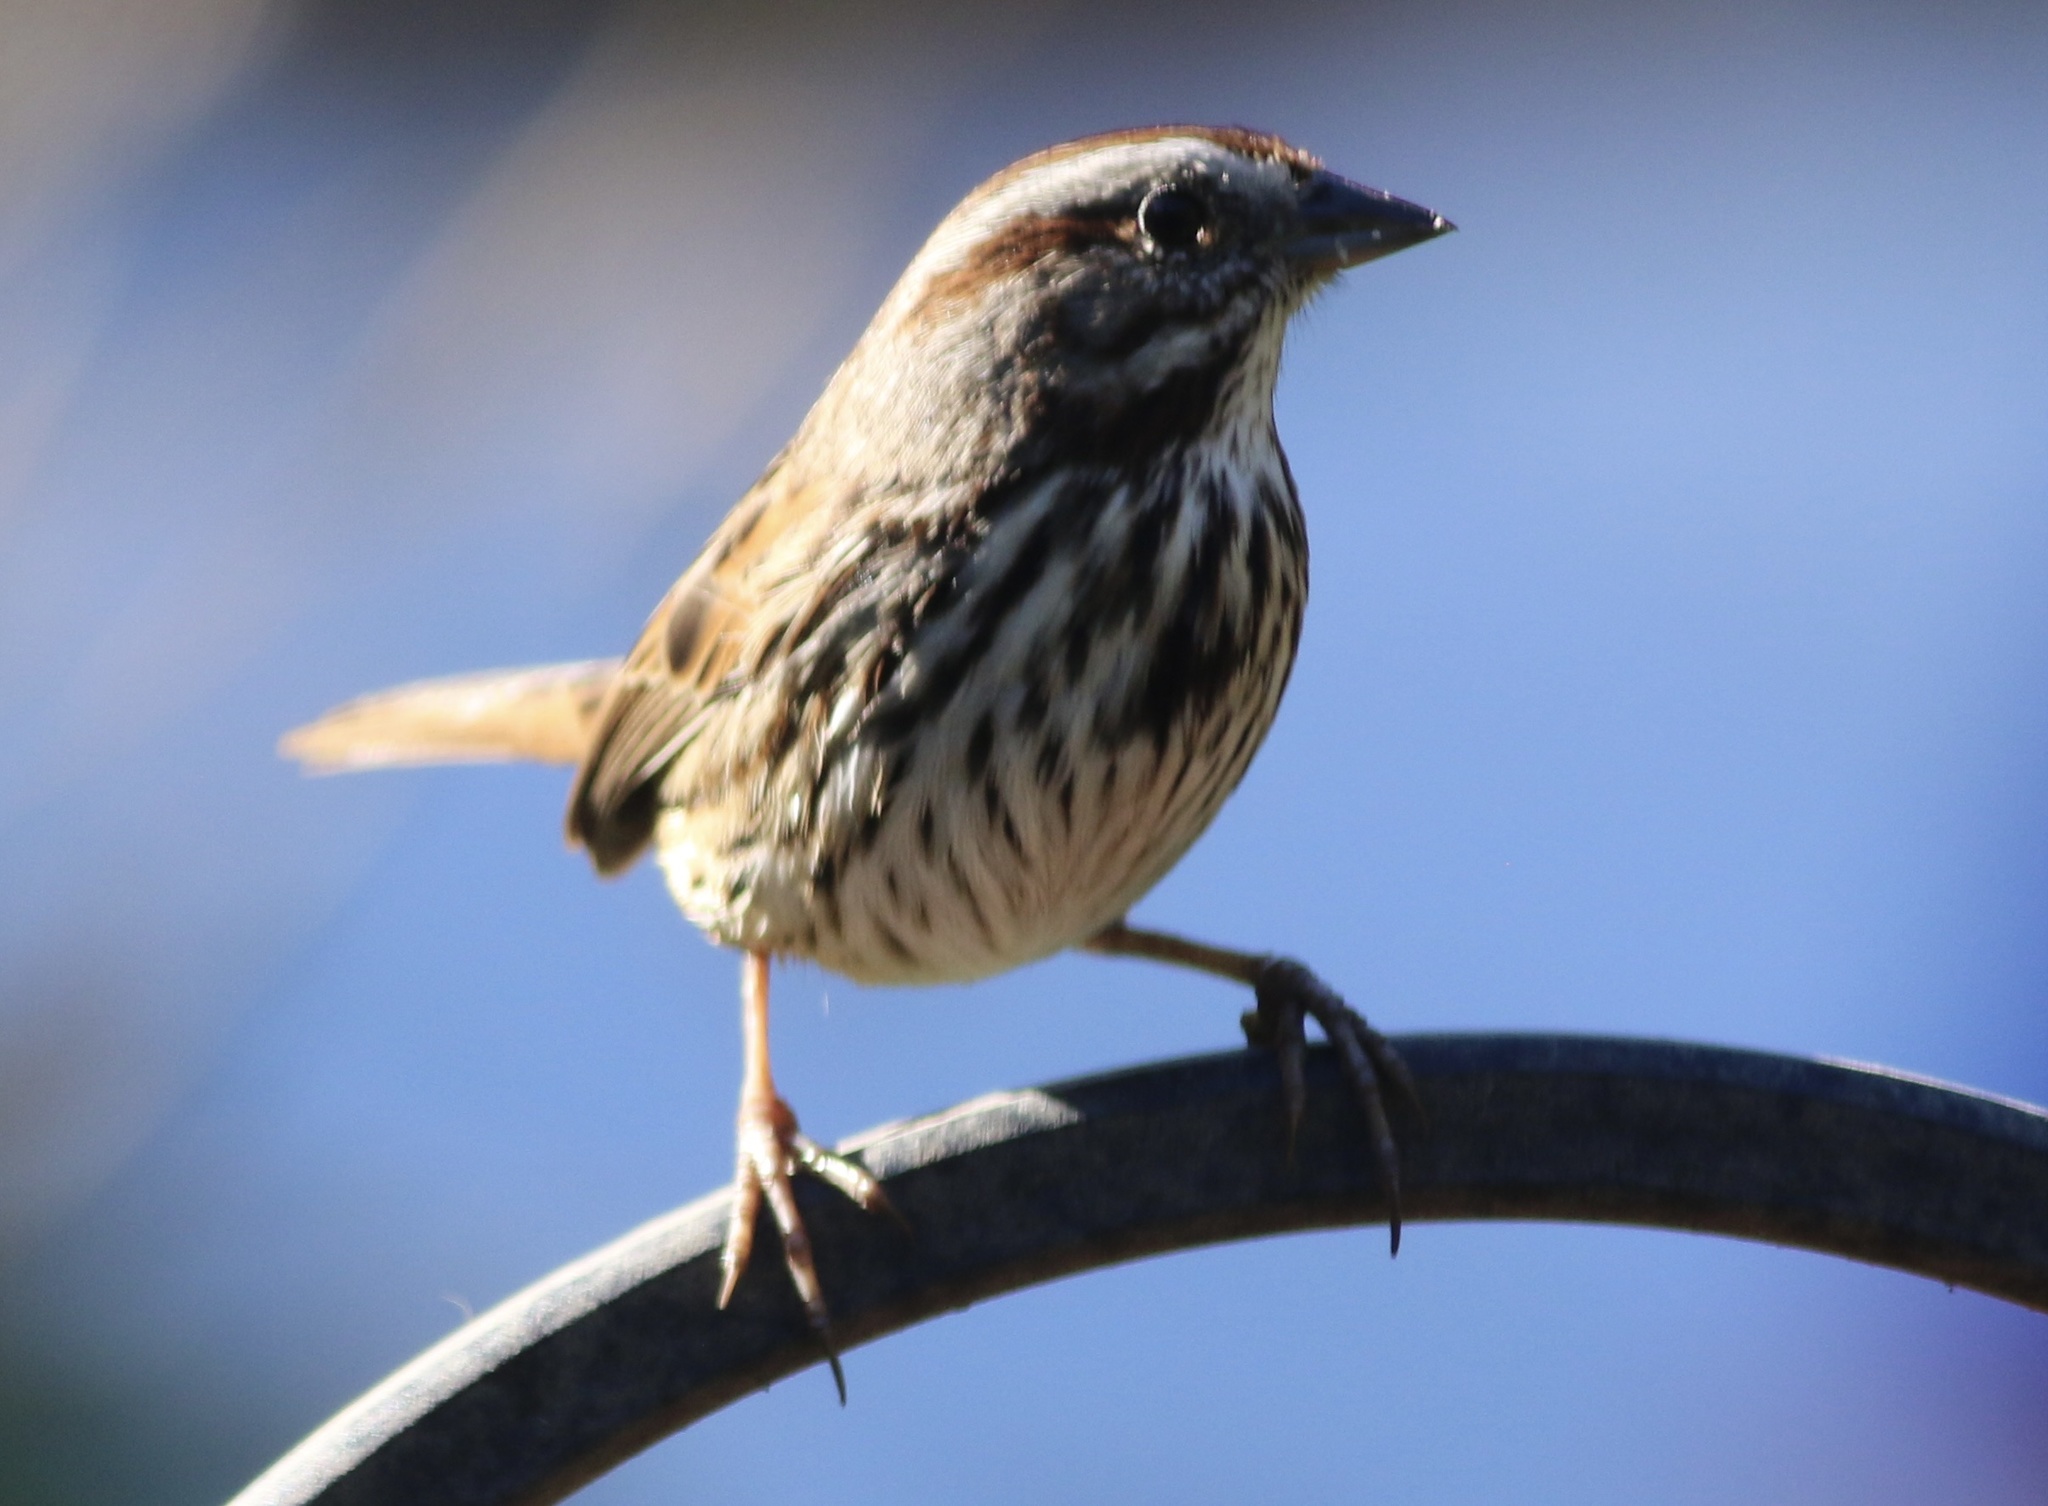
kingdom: Animalia
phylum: Chordata
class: Aves
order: Passeriformes
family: Passerellidae
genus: Melospiza
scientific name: Melospiza melodia
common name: Song sparrow
